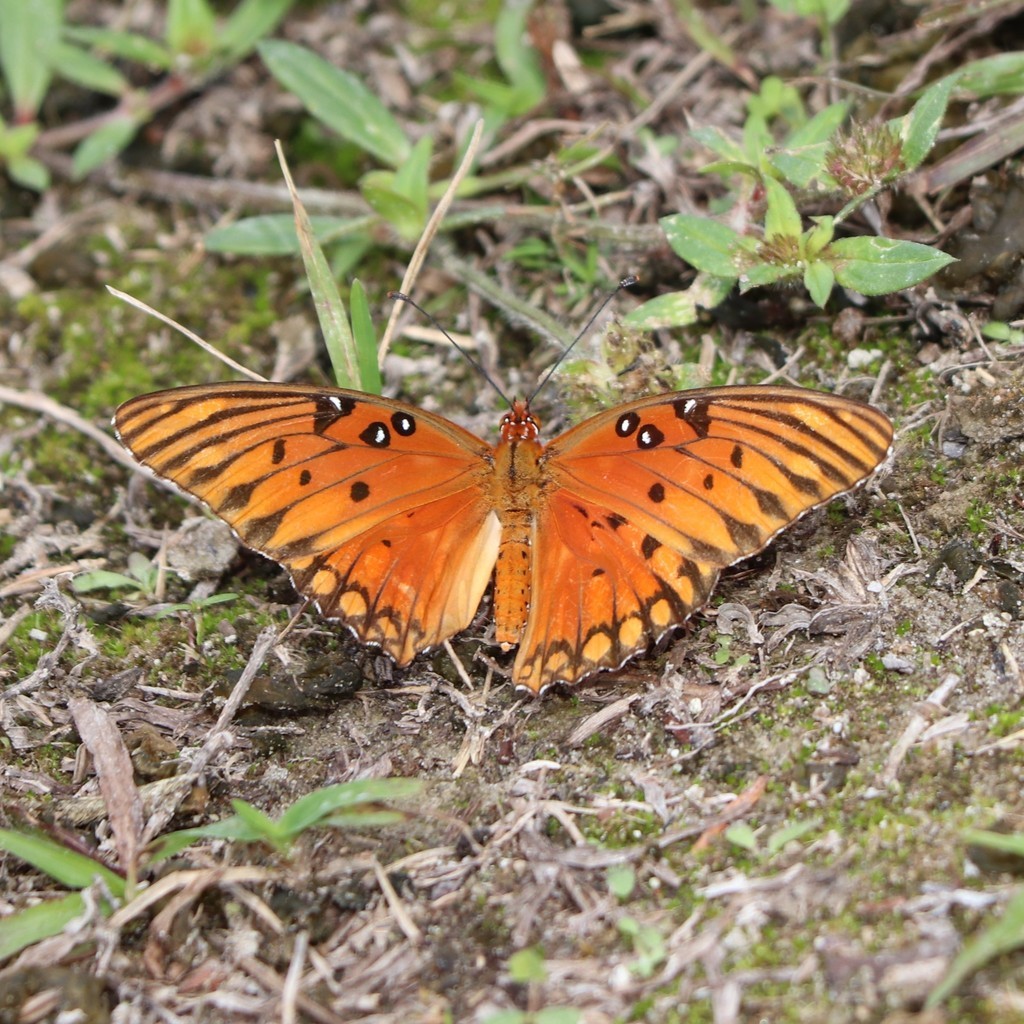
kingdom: Animalia
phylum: Arthropoda
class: Insecta
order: Lepidoptera
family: Nymphalidae
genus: Dione
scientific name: Dione vanillae
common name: Gulf fritillary
